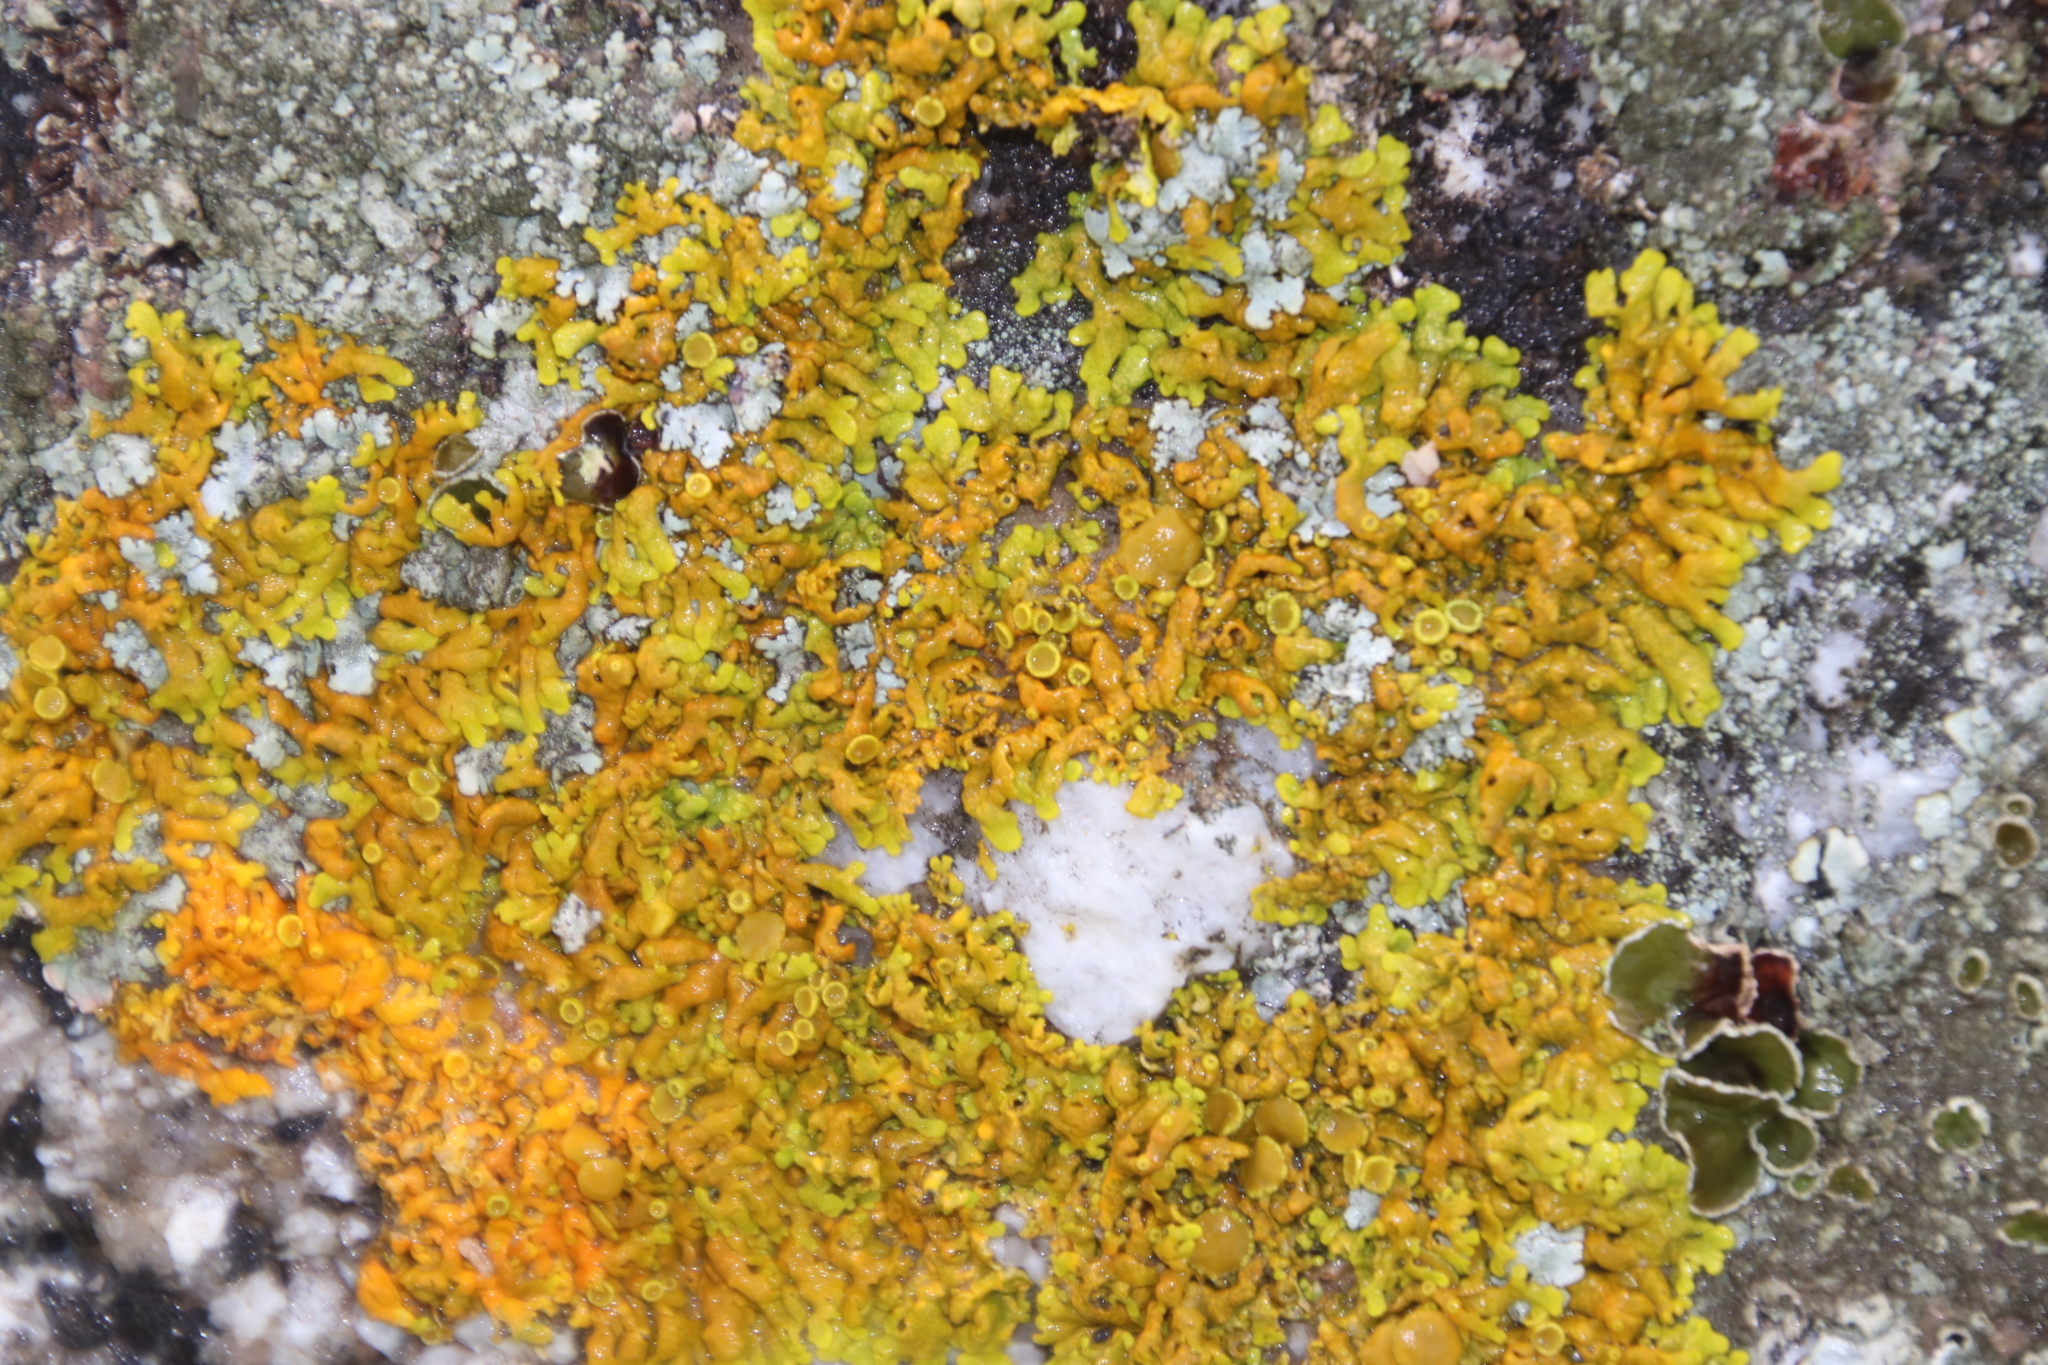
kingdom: Fungi
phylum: Ascomycota
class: Lecanoromycetes
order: Teloschistales
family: Teloschistaceae
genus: Dufourea
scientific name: Dufourea capensis
